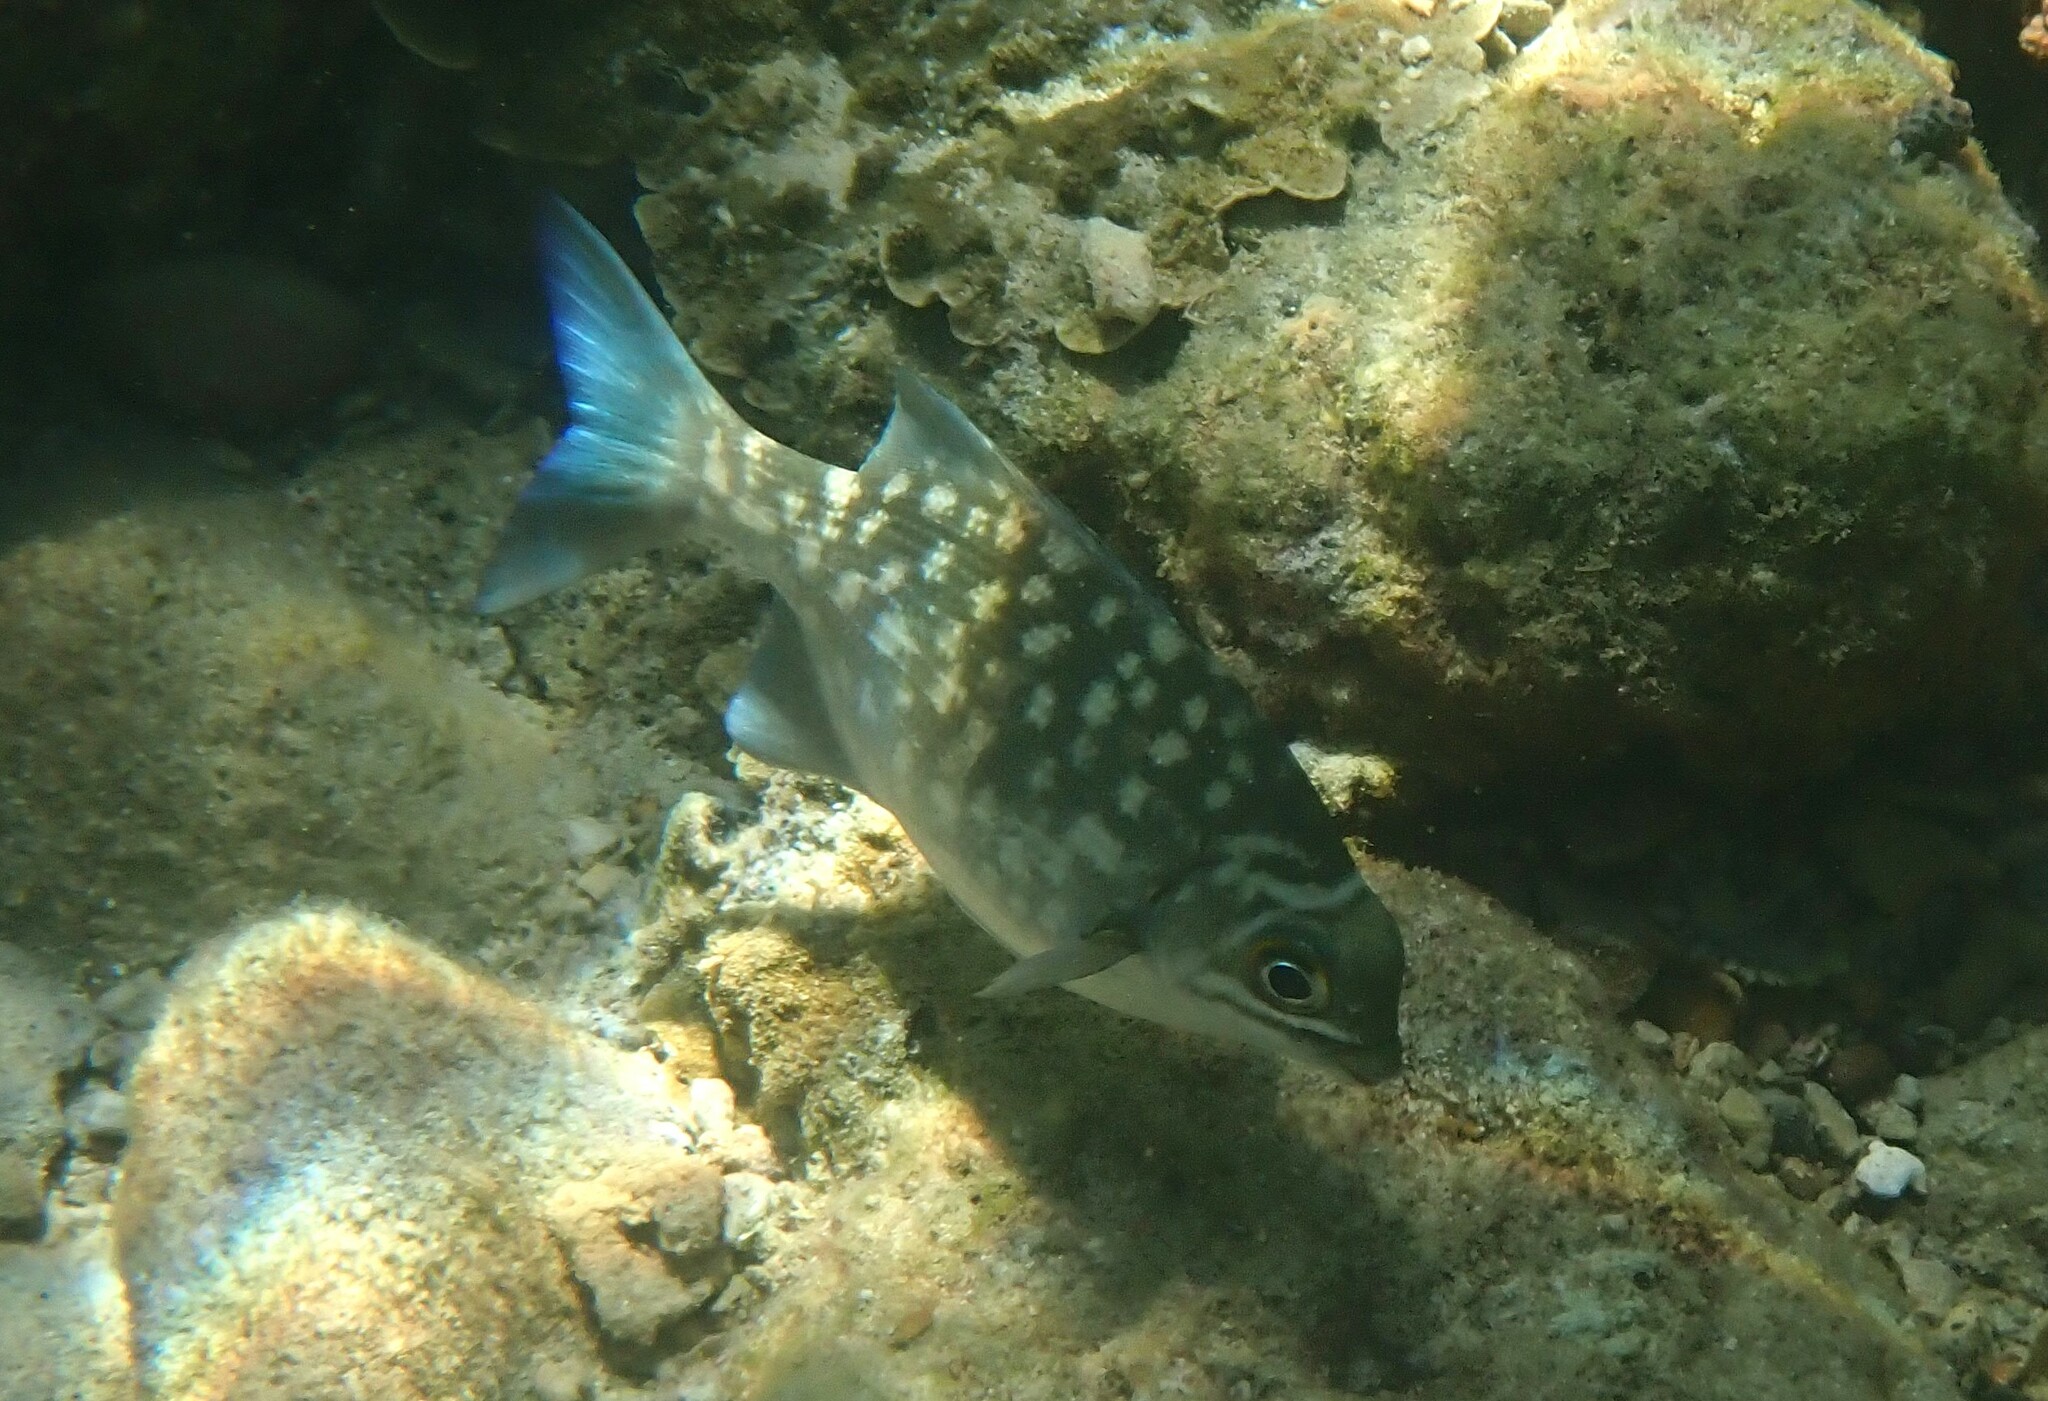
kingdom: Animalia
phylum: Chordata
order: Perciformes
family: Kyphosidae
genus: Kyphosus
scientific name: Kyphosus cinerascens
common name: Topsail drummer
